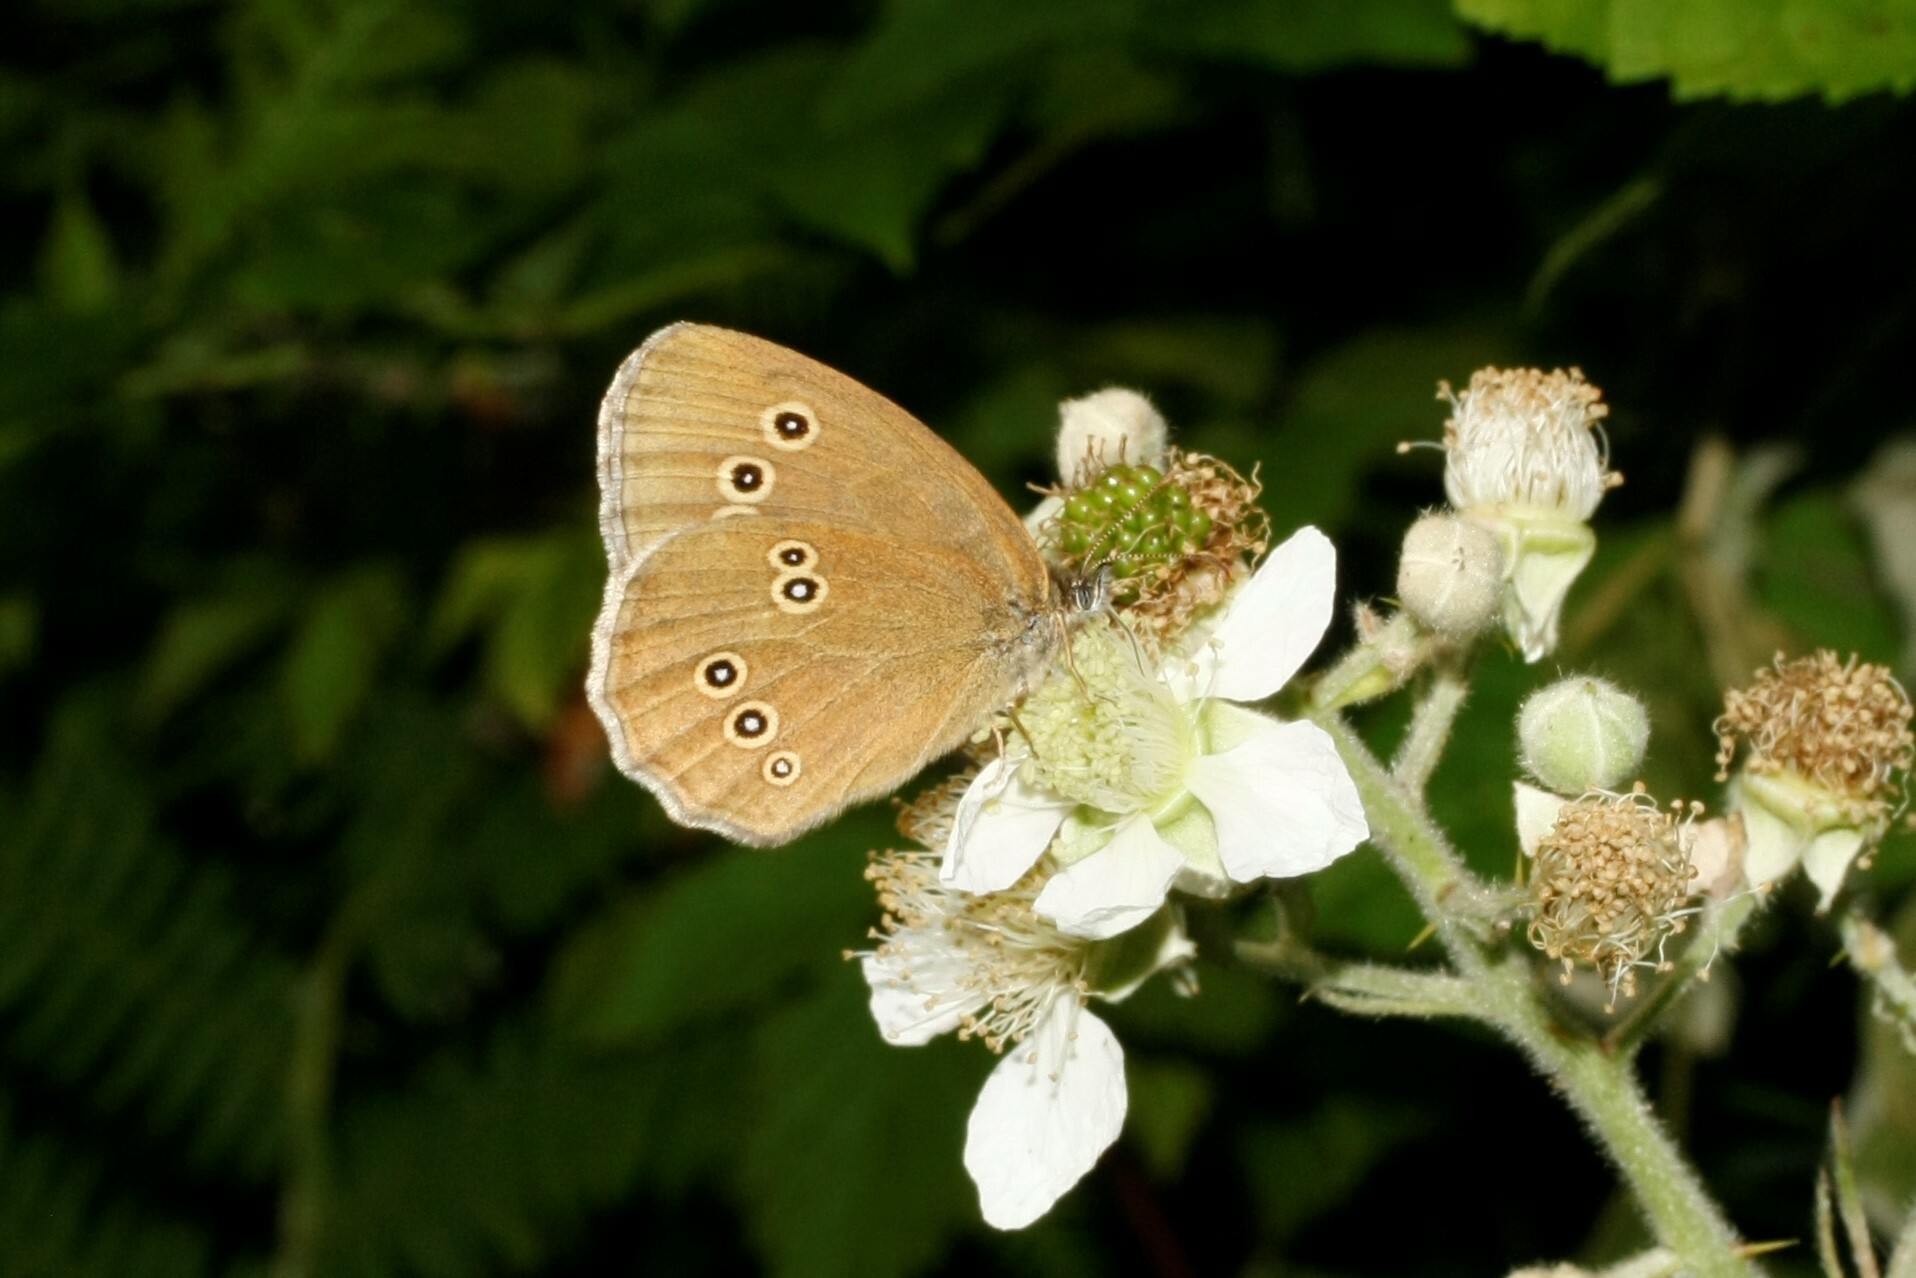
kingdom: Animalia
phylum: Arthropoda
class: Insecta
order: Lepidoptera
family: Nymphalidae
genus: Aphantopus
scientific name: Aphantopus hyperantus
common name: Ringlet
